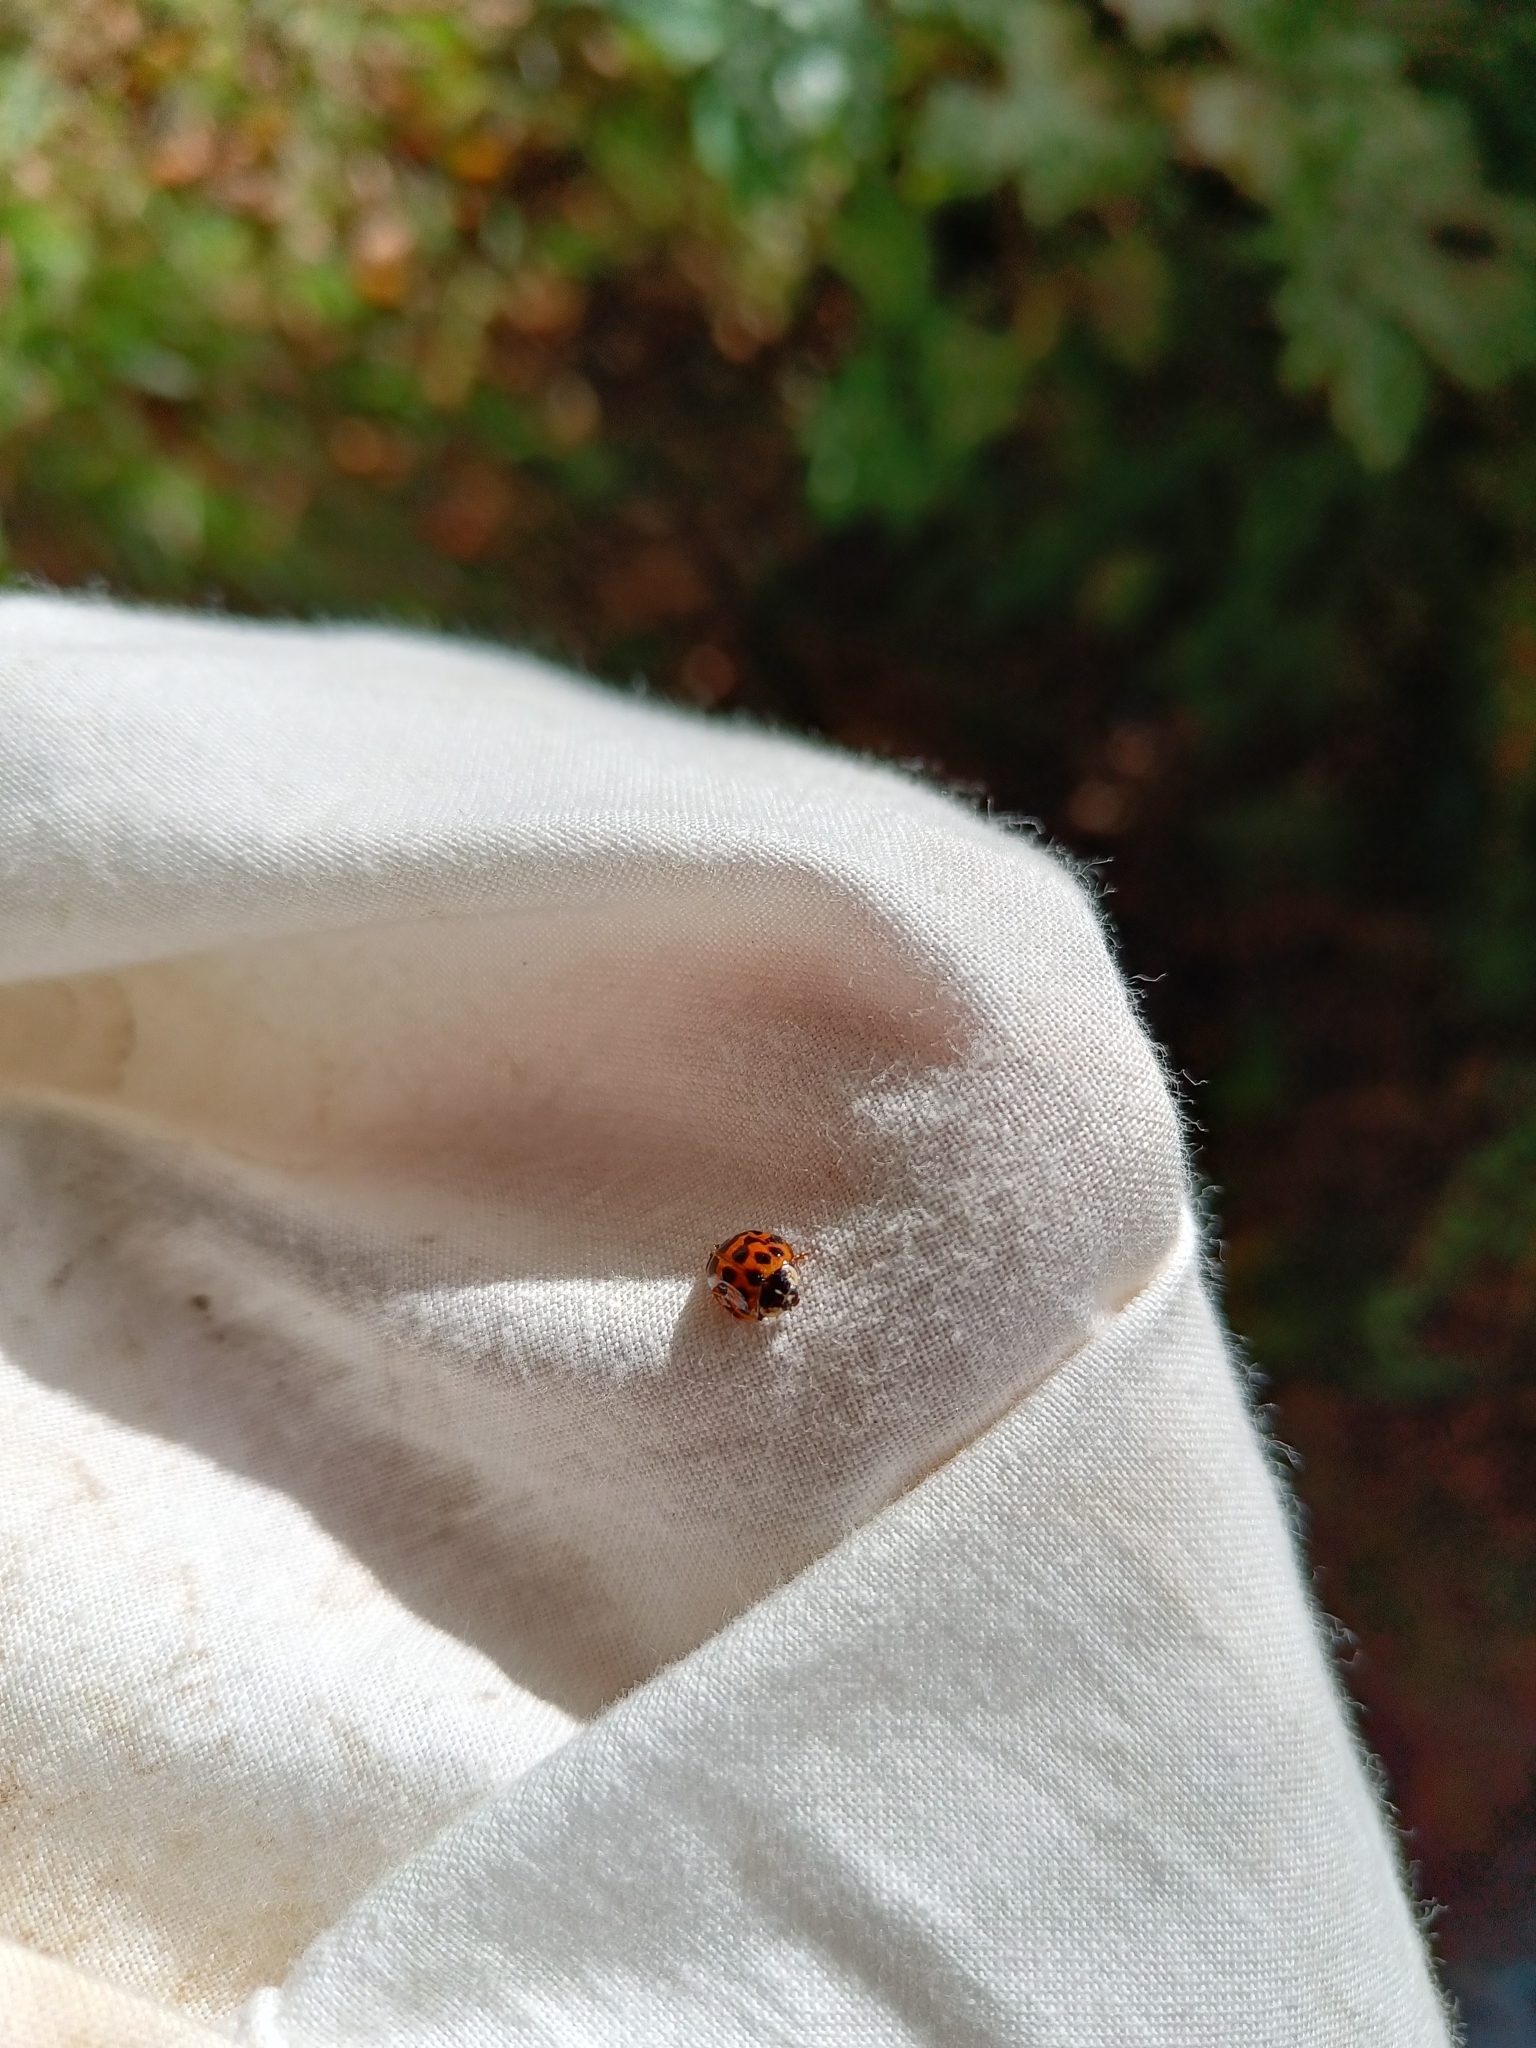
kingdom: Animalia
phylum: Arthropoda
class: Insecta
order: Coleoptera
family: Coccinellidae
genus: Harmonia
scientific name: Harmonia axyridis
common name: Harlequin ladybird
